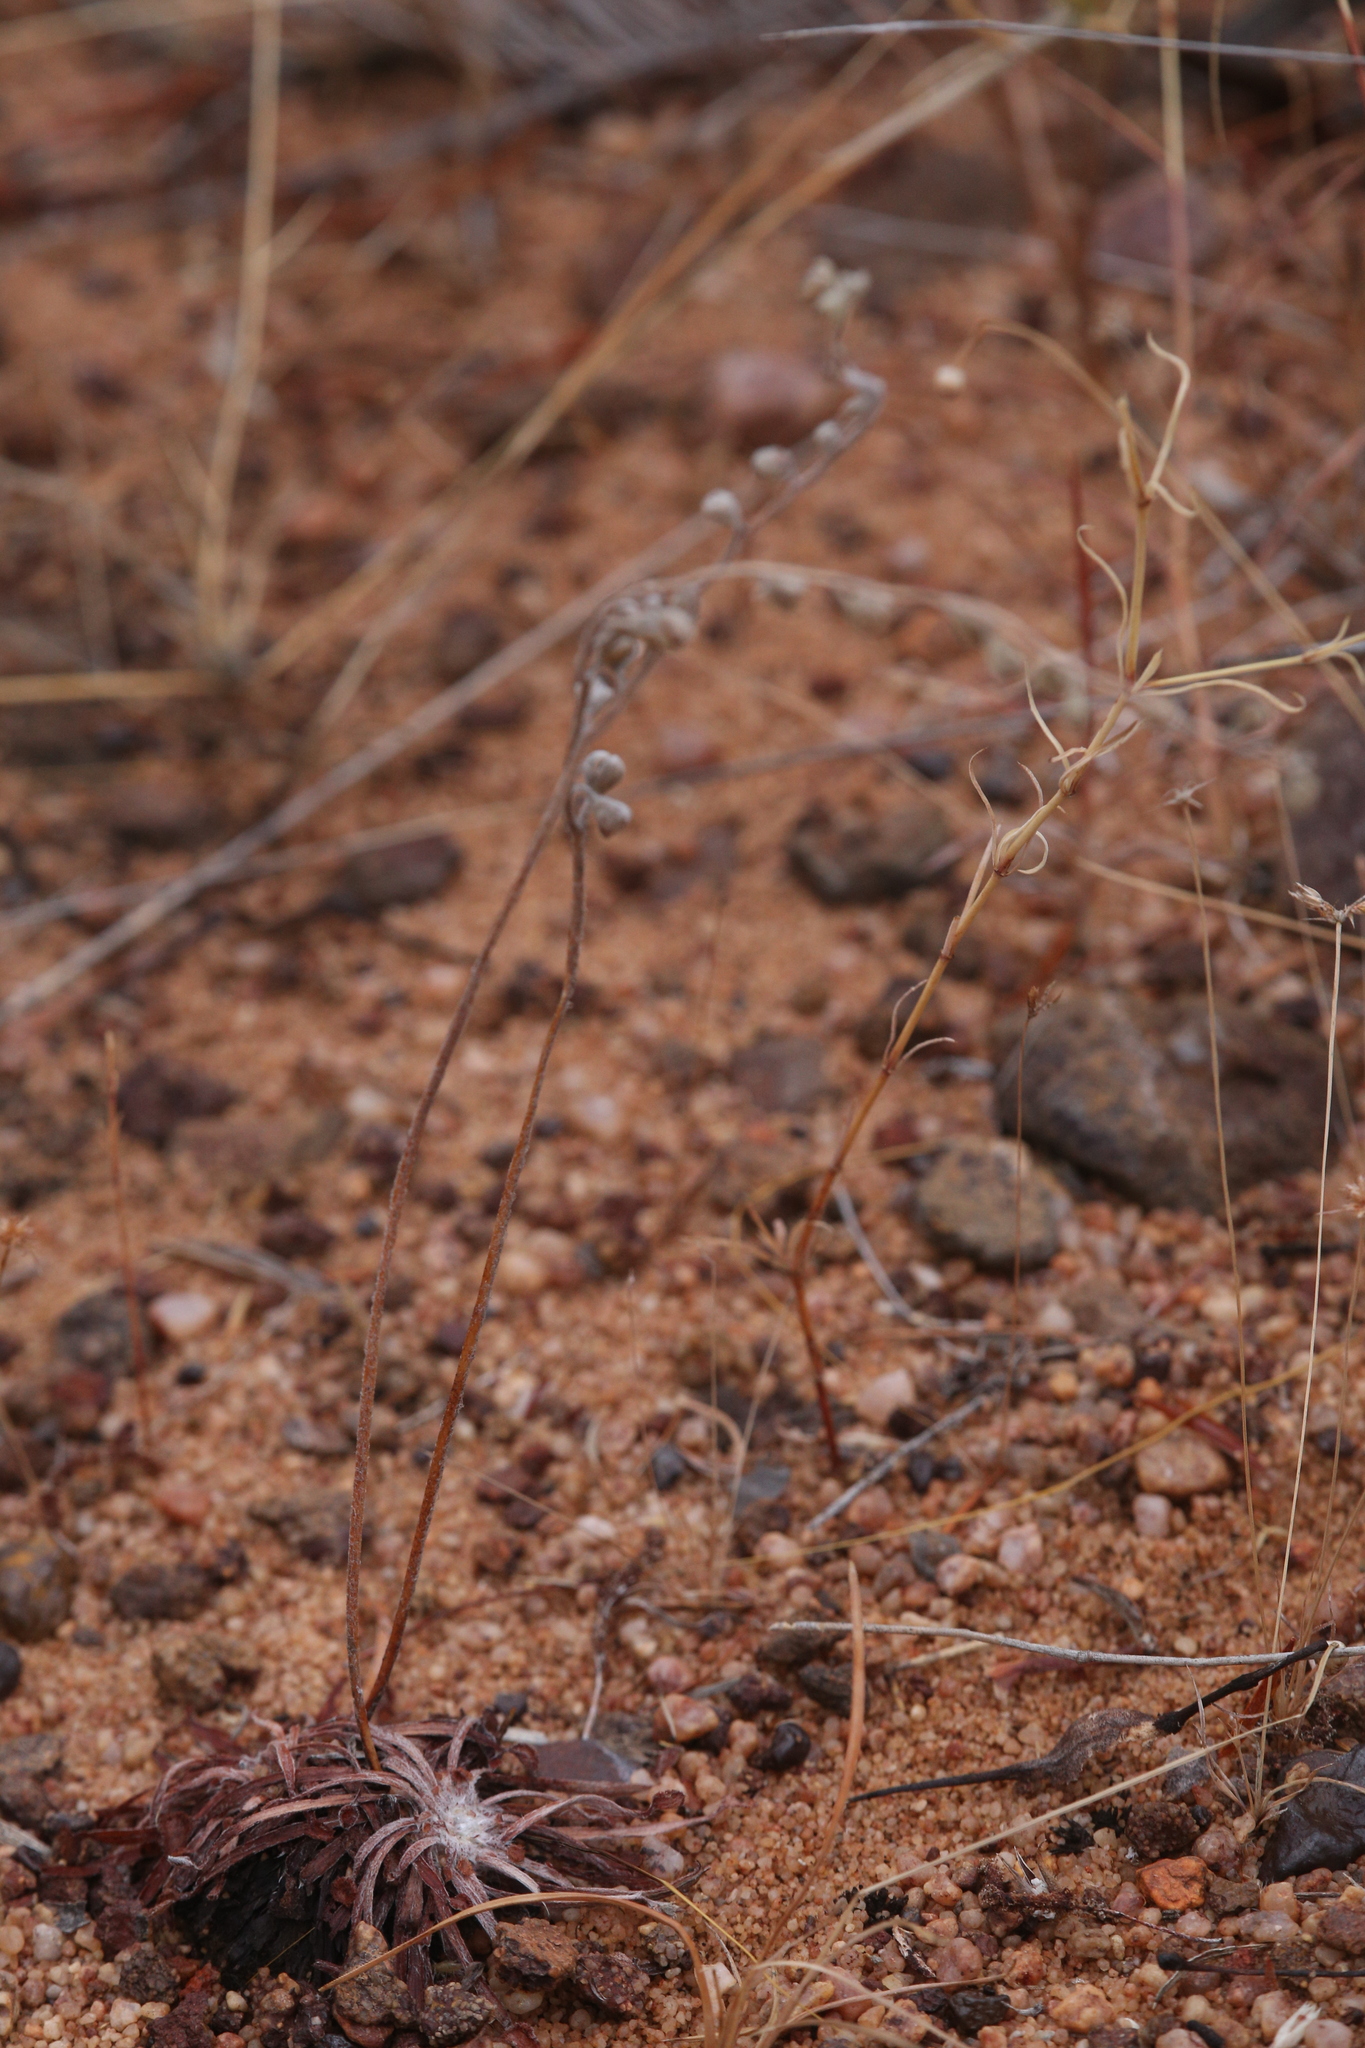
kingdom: Plantae
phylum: Tracheophyta
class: Magnoliopsida
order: Caryophyllales
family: Droseraceae
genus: Drosera
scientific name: Drosera dilatatopetiolaris
